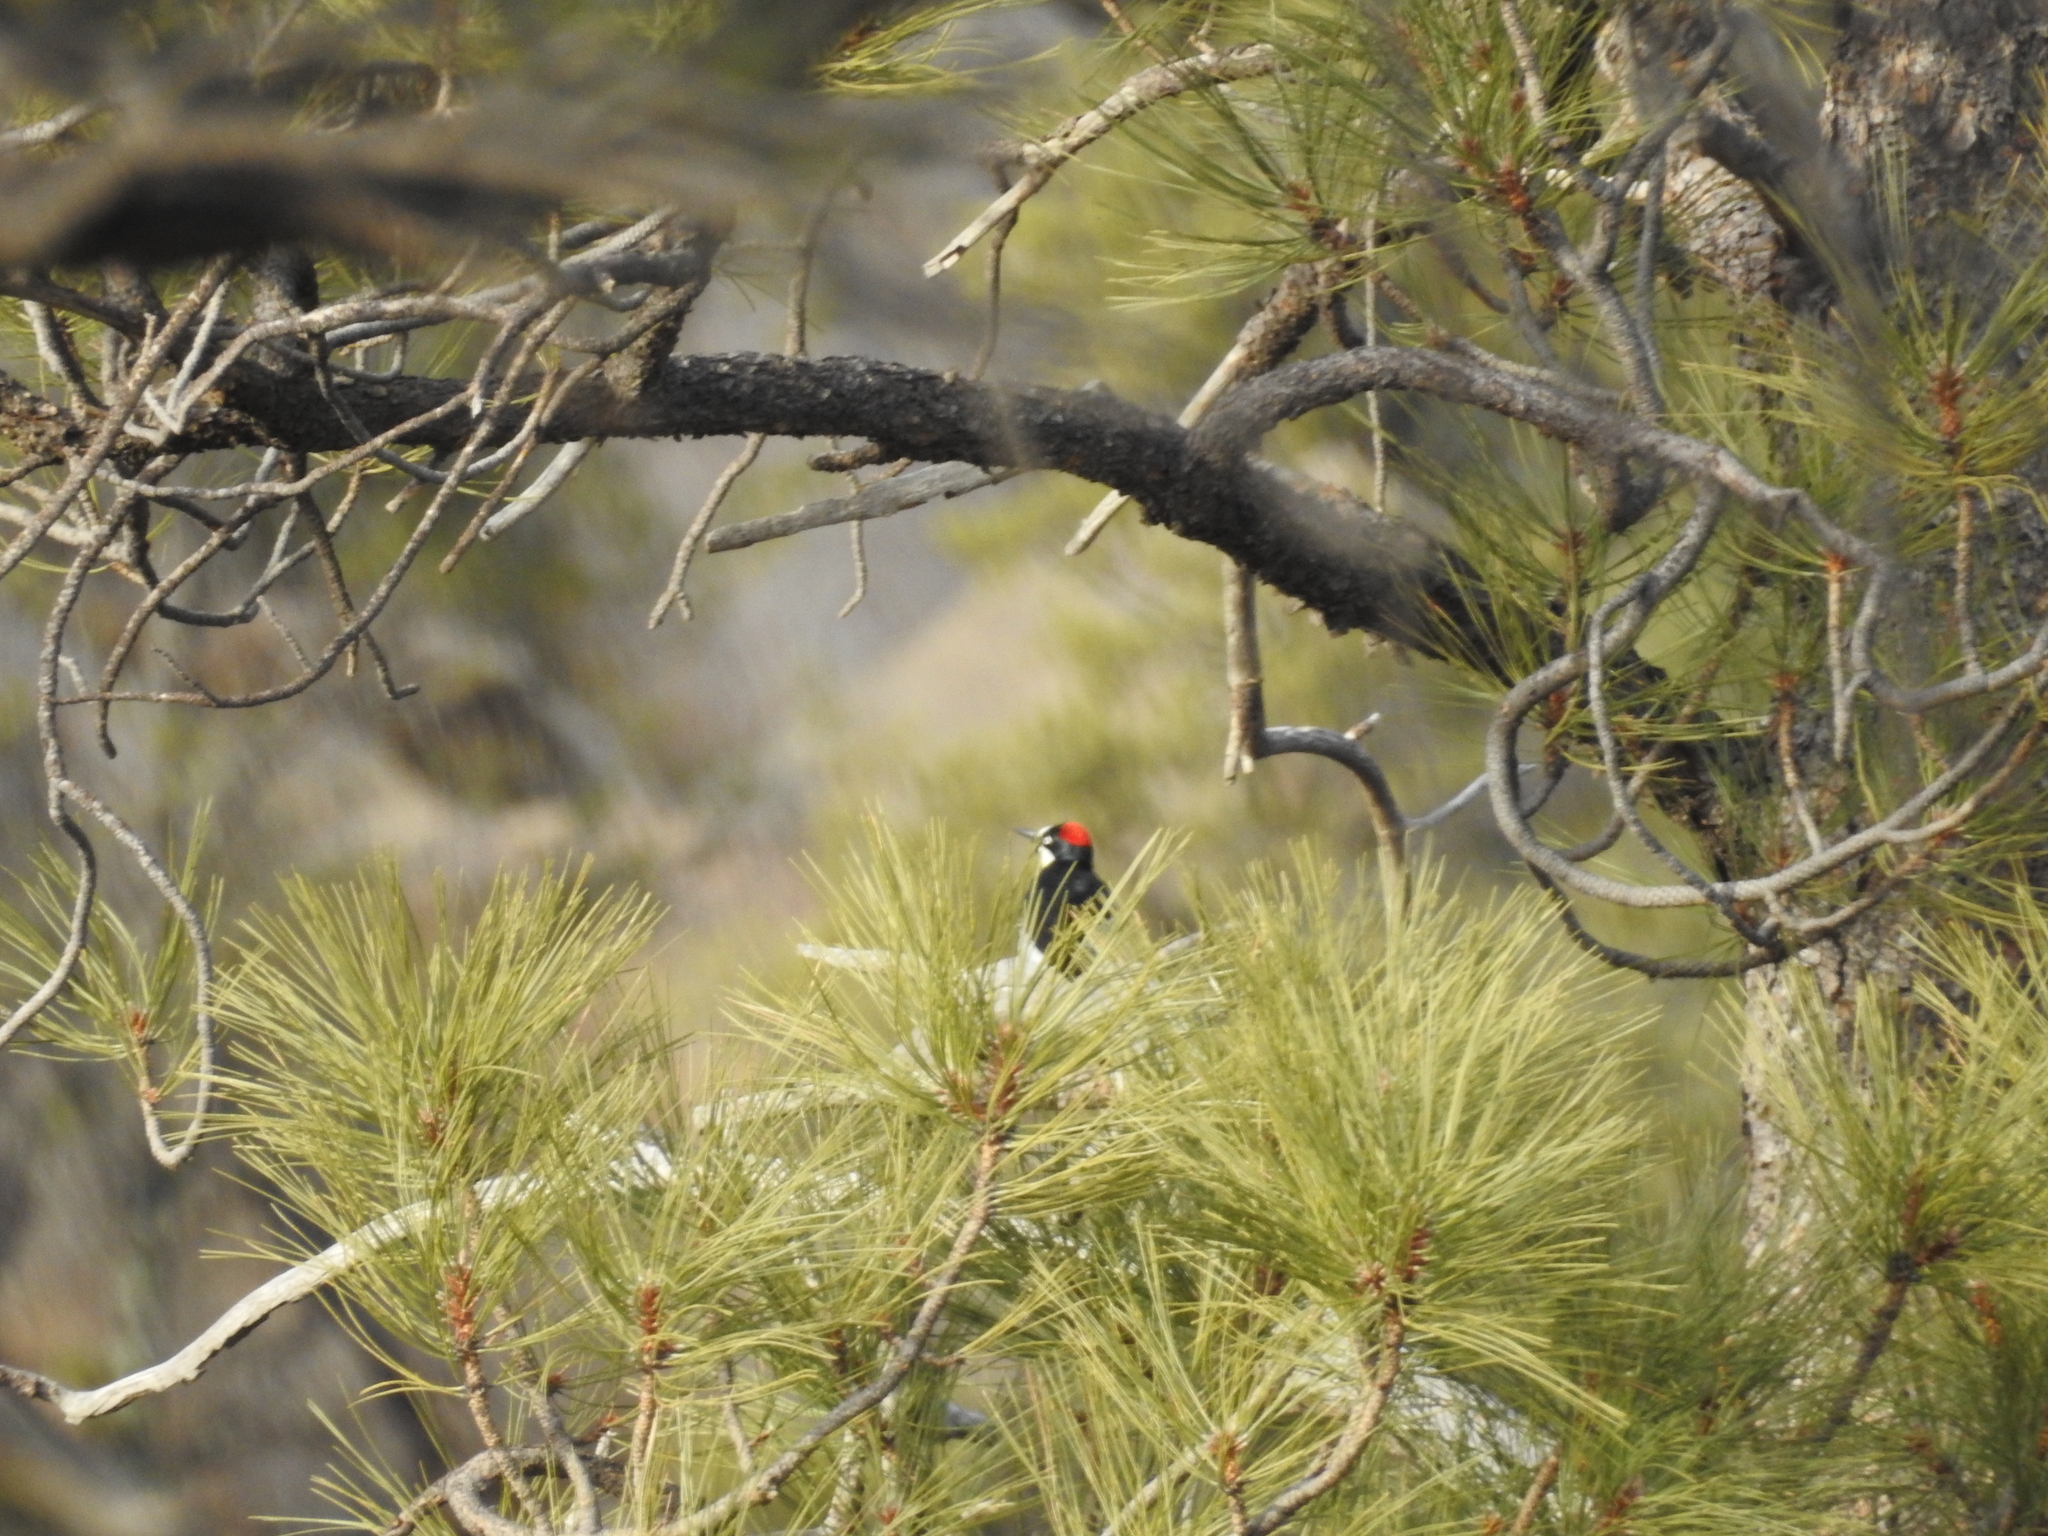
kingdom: Animalia
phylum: Chordata
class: Aves
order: Piciformes
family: Picidae
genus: Melanerpes
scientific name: Melanerpes formicivorus
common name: Acorn woodpecker
